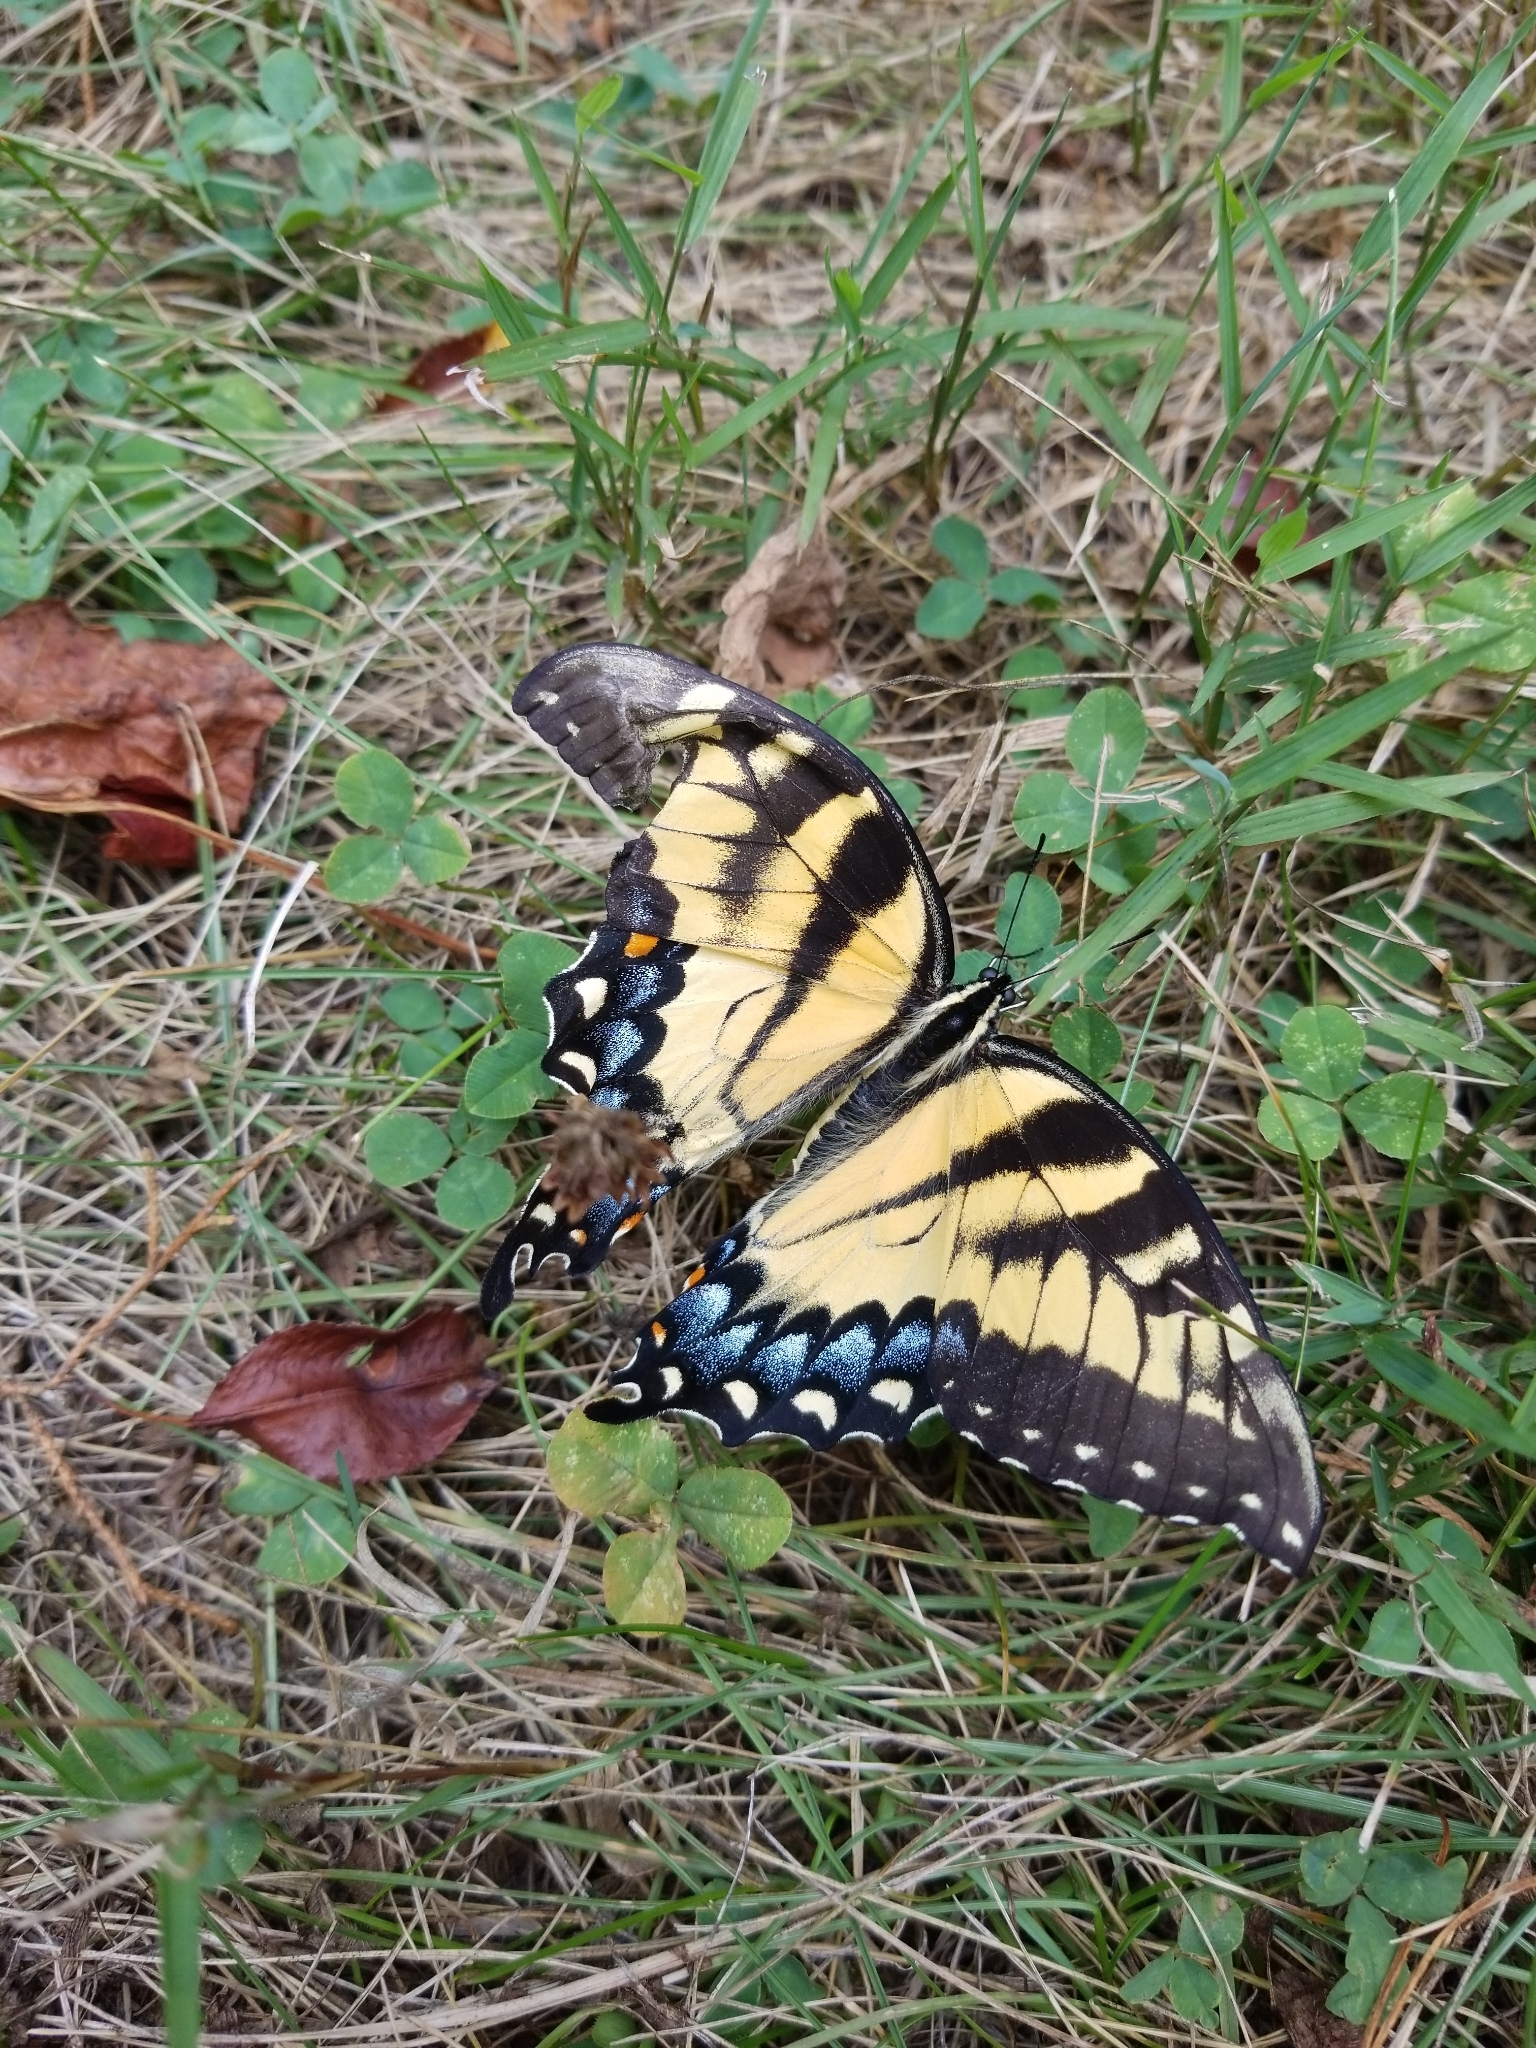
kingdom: Animalia
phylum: Arthropoda
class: Insecta
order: Lepidoptera
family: Papilionidae
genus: Papilio
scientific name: Papilio glaucus
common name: Tiger swallowtail
